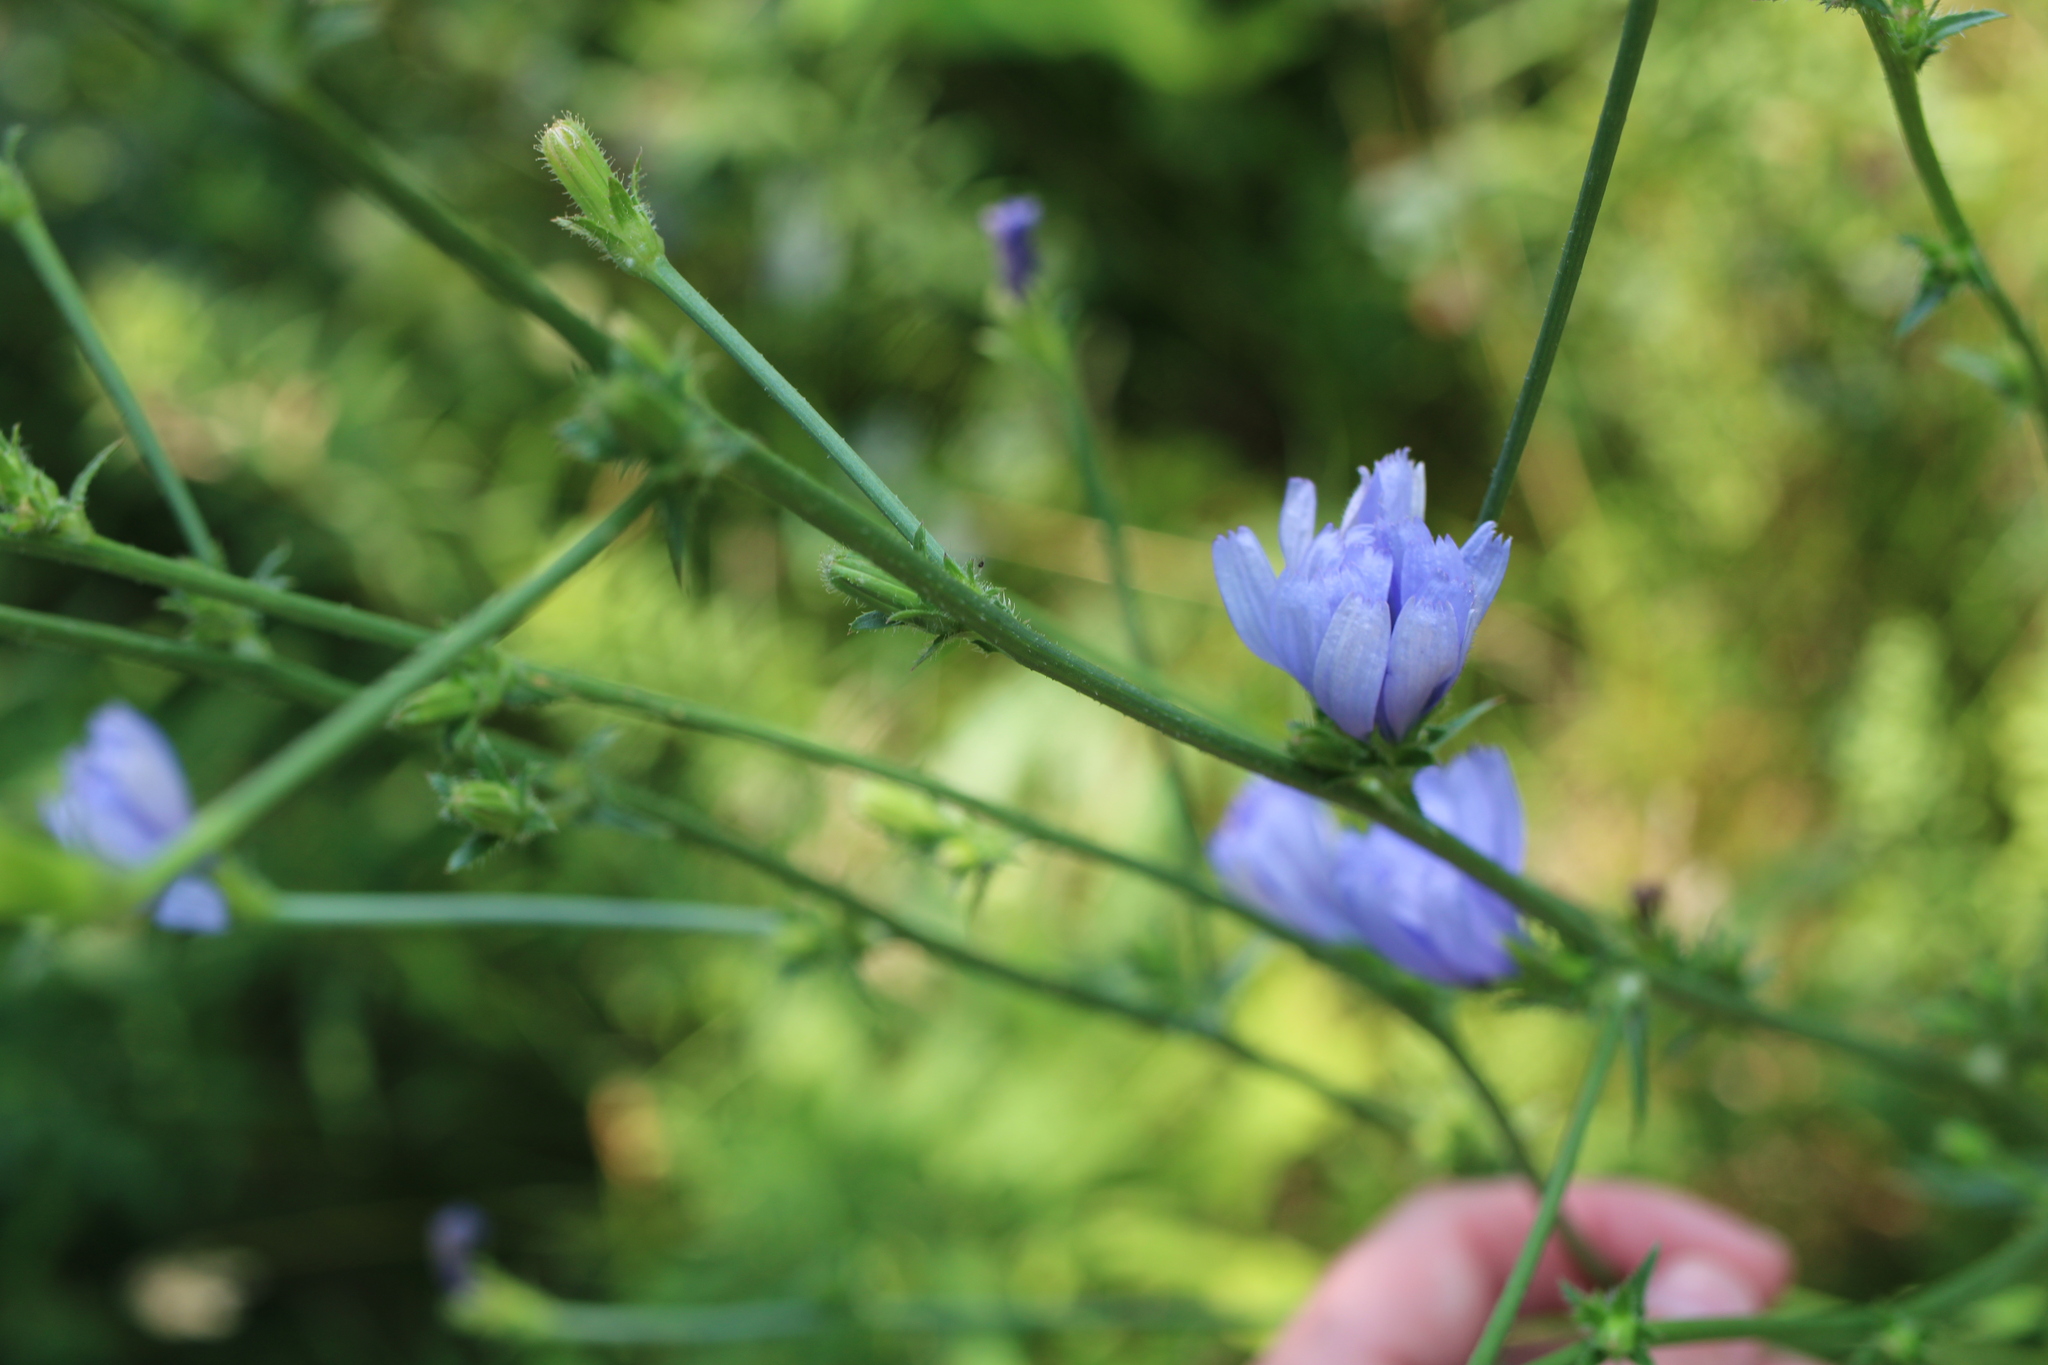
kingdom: Plantae
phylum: Tracheophyta
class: Magnoliopsida
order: Asterales
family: Asteraceae
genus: Cichorium
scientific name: Cichorium intybus
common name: Chicory
